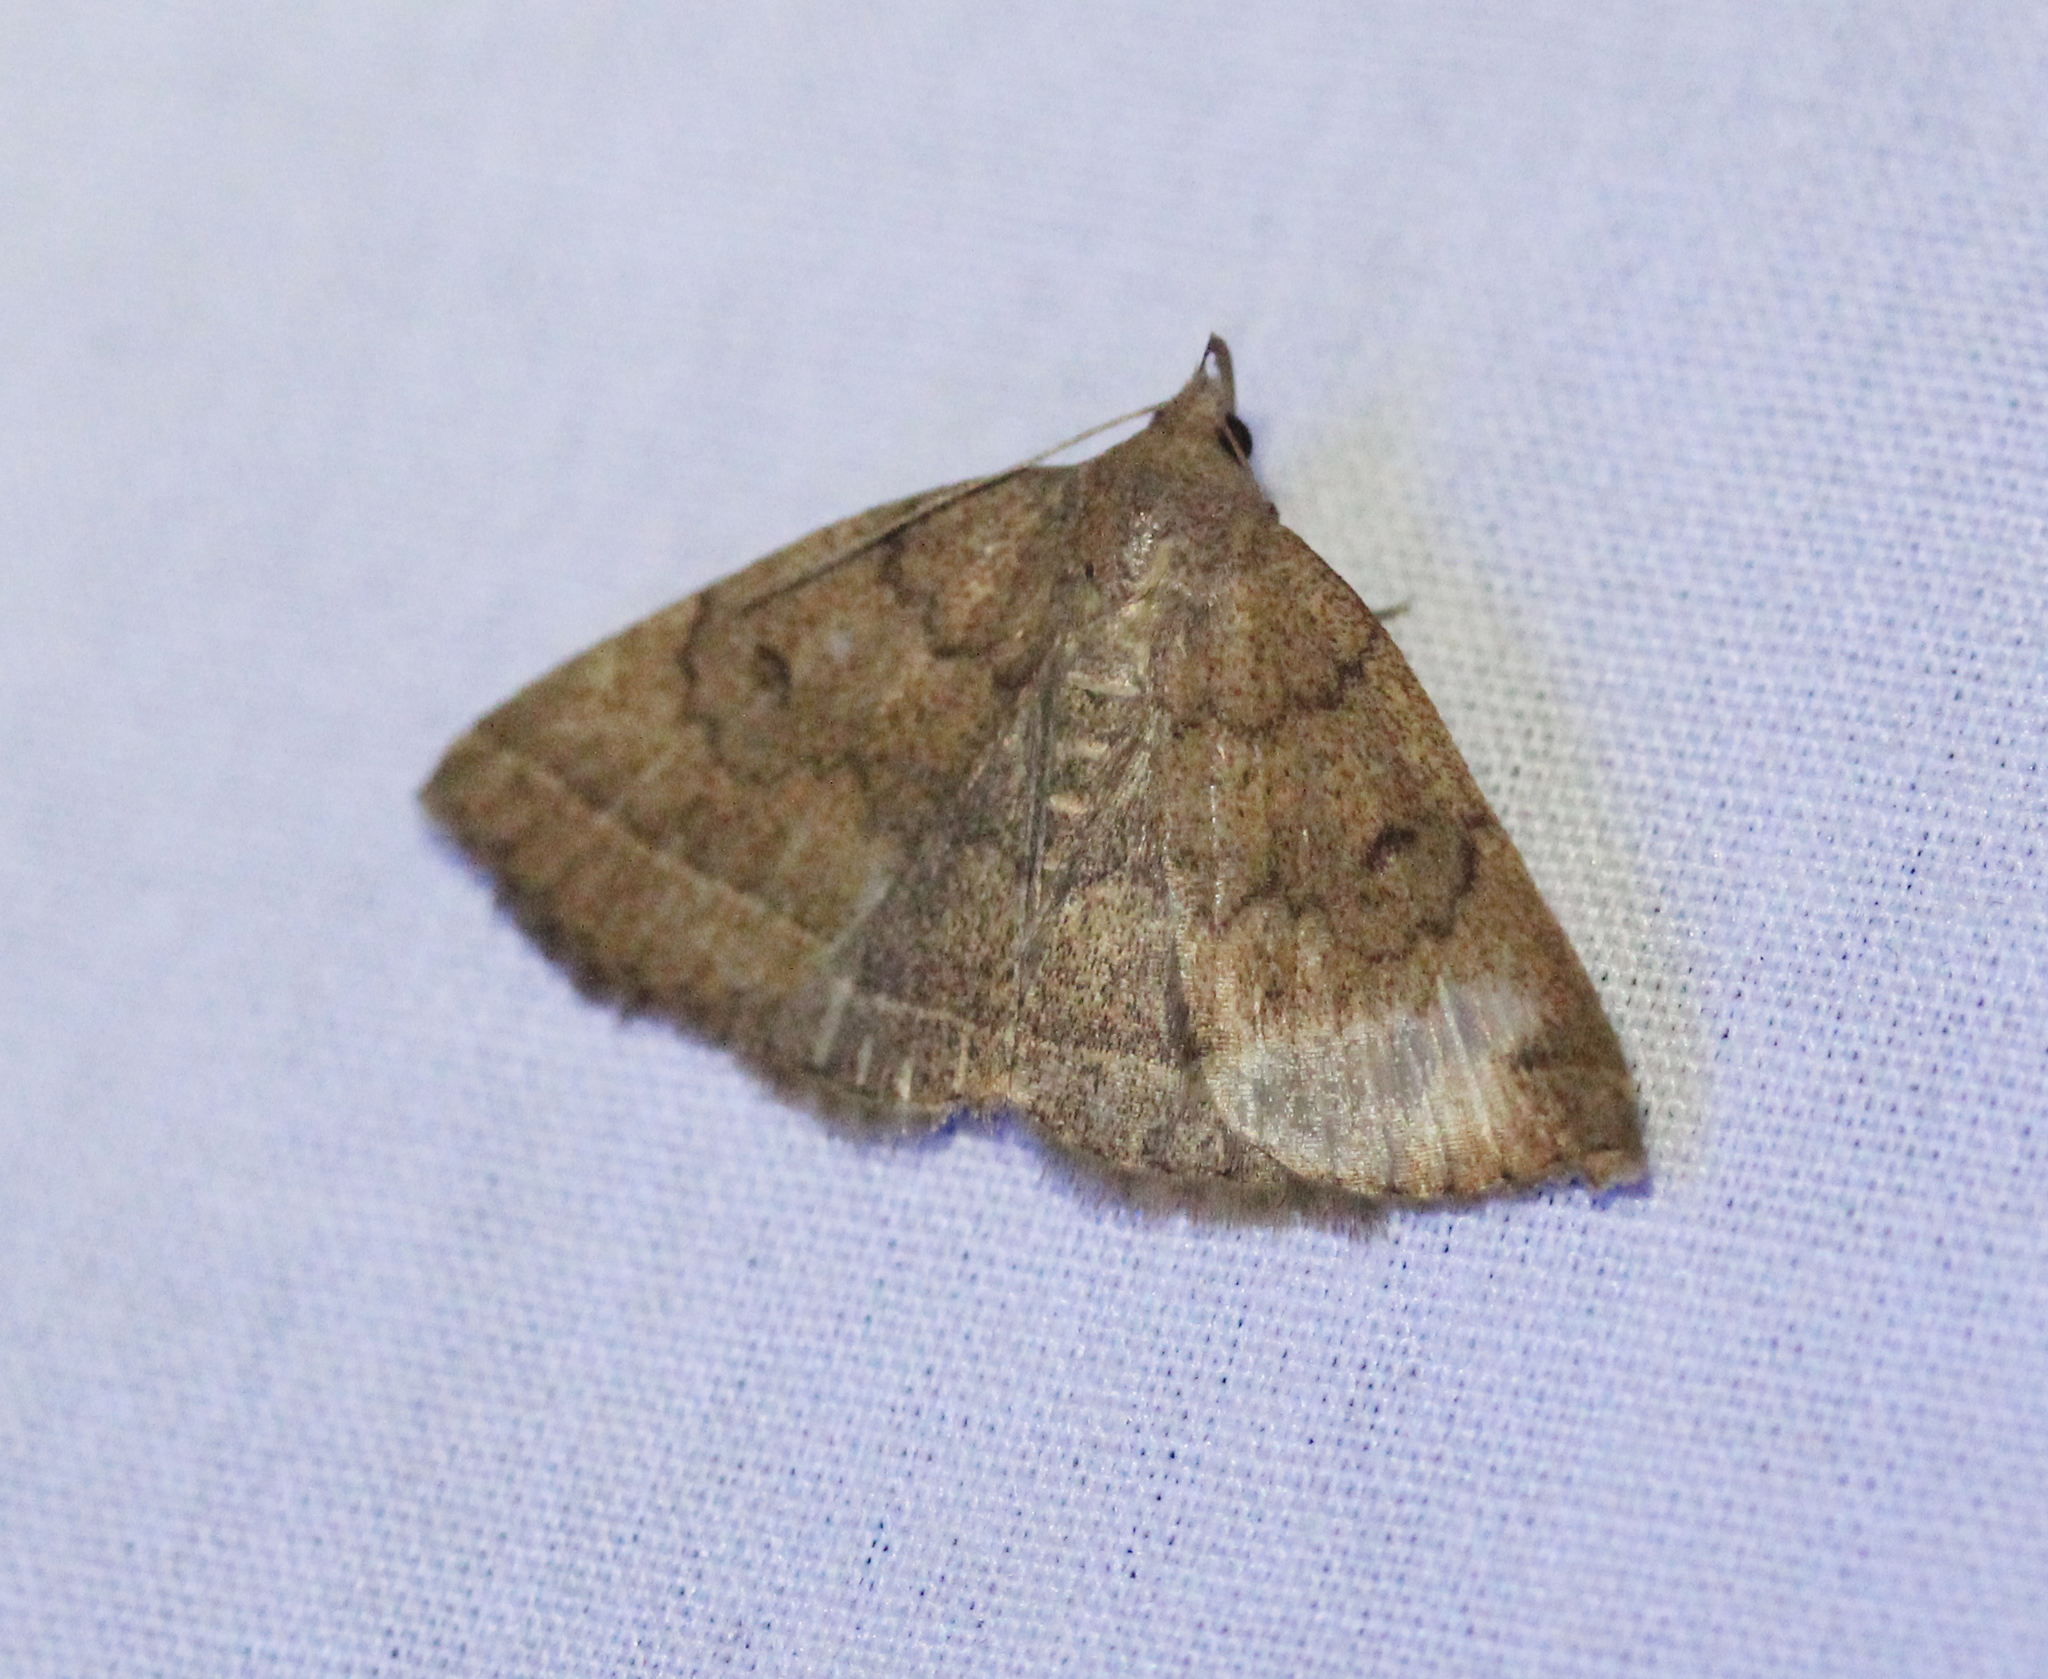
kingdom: Animalia
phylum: Arthropoda
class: Insecta
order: Lepidoptera
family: Erebidae
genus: Zanclognatha
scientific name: Zanclognatha jacchusalis
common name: Yellowish zanclognatha
